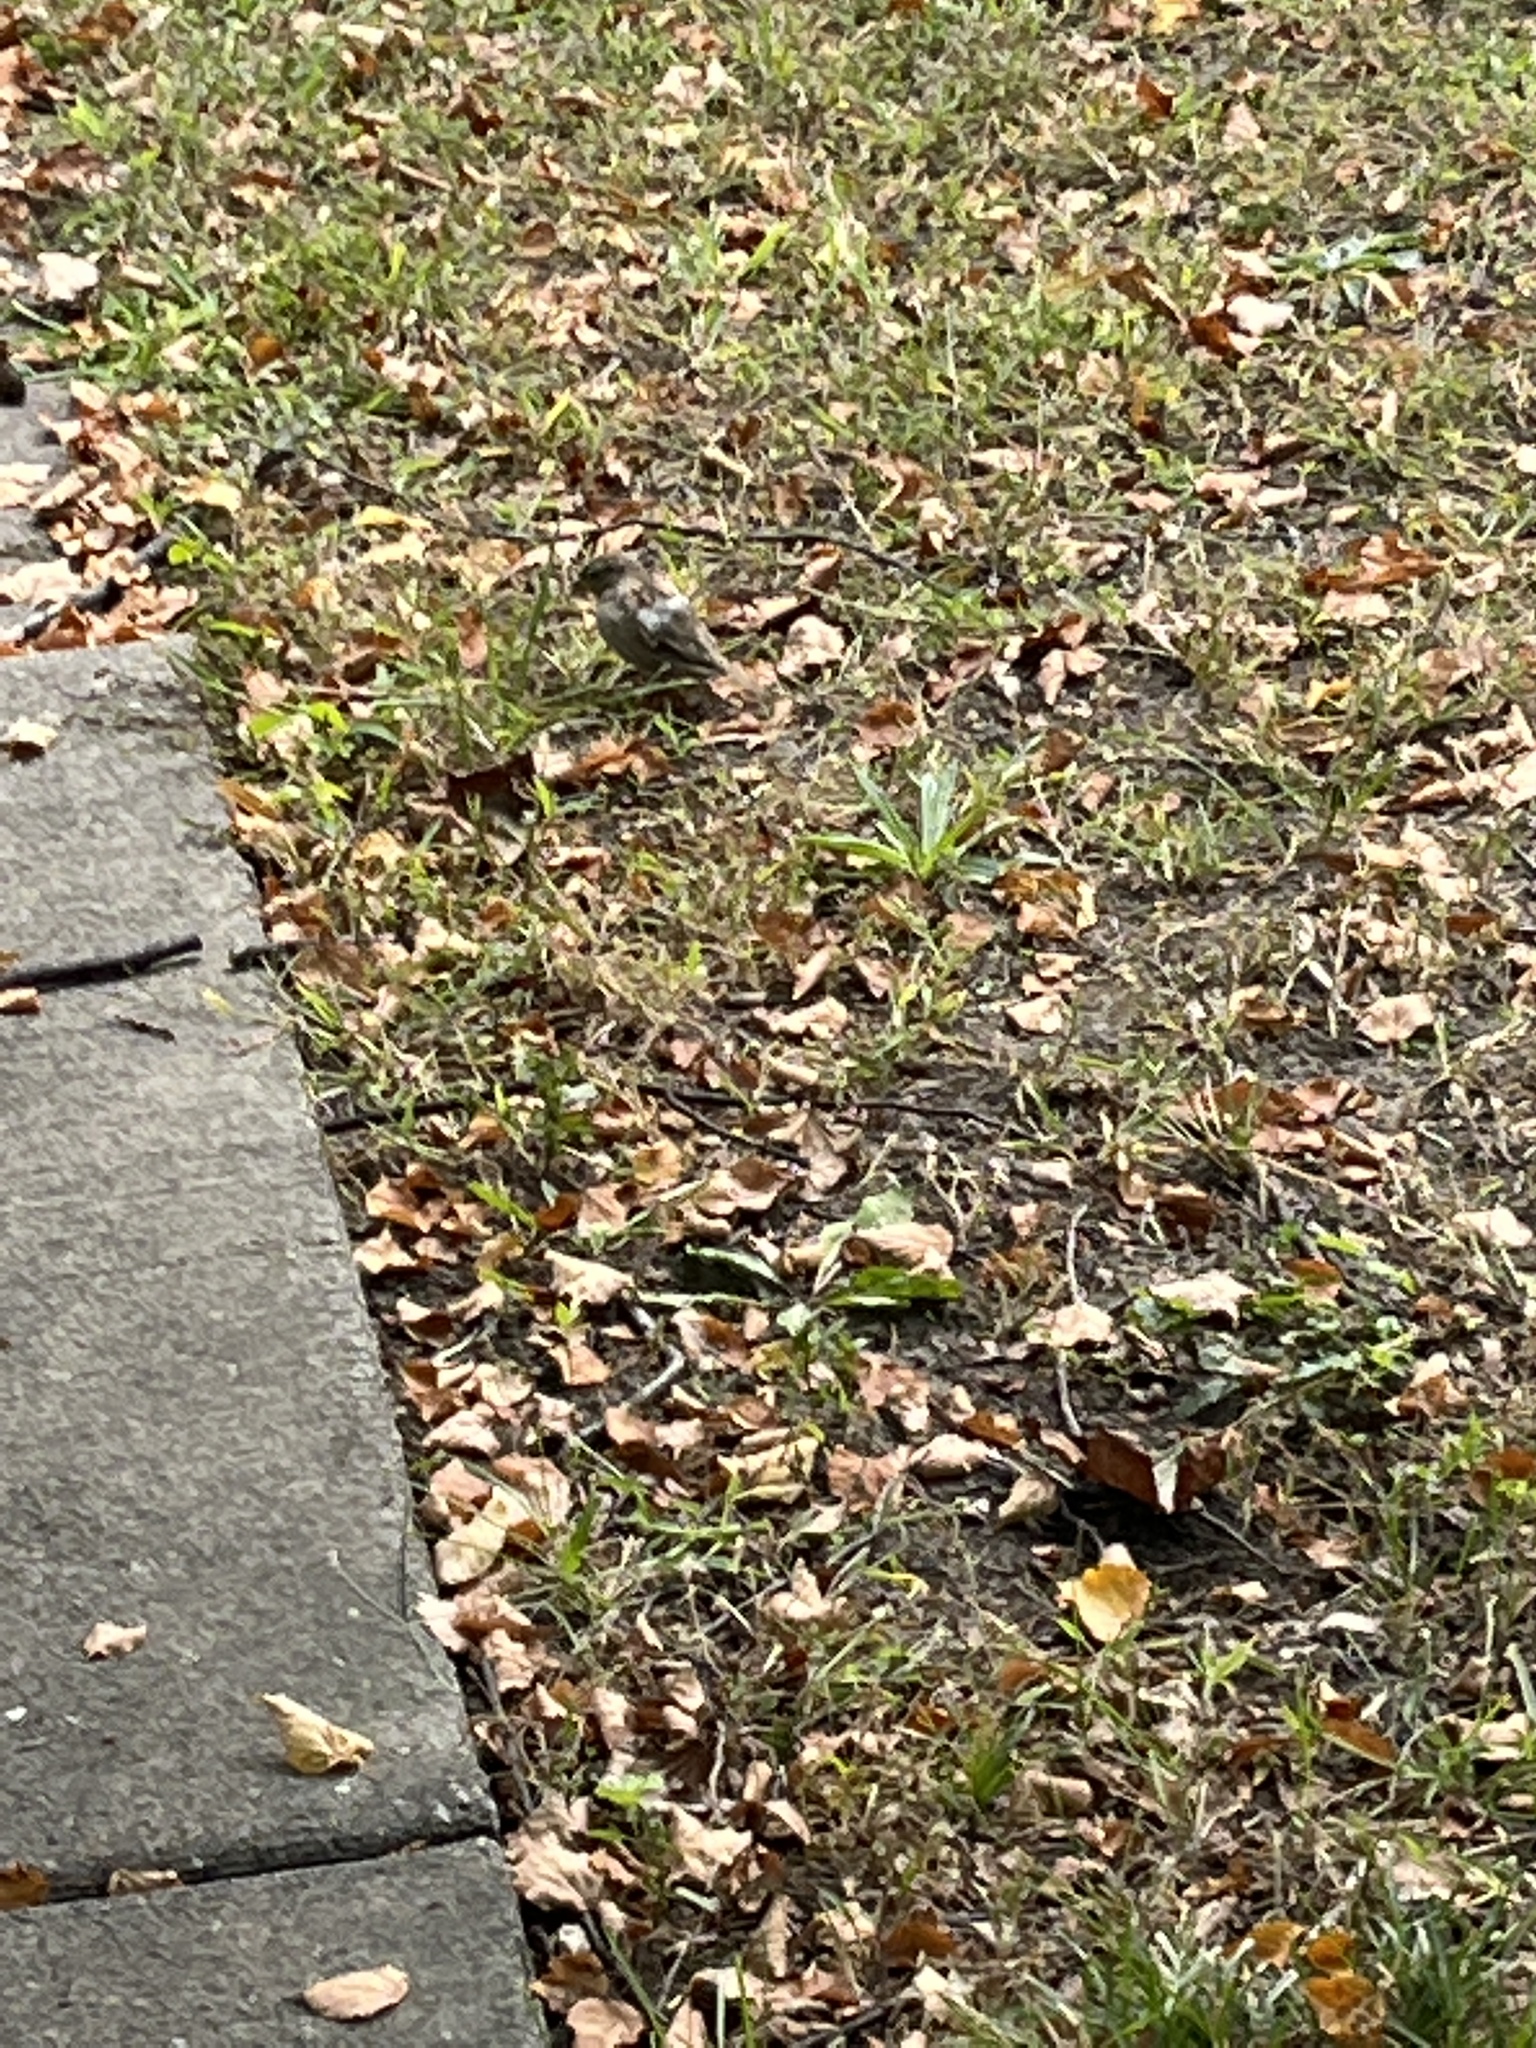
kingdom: Animalia
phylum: Chordata
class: Aves
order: Passeriformes
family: Passeridae
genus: Passer
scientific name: Passer domesticus
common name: House sparrow
